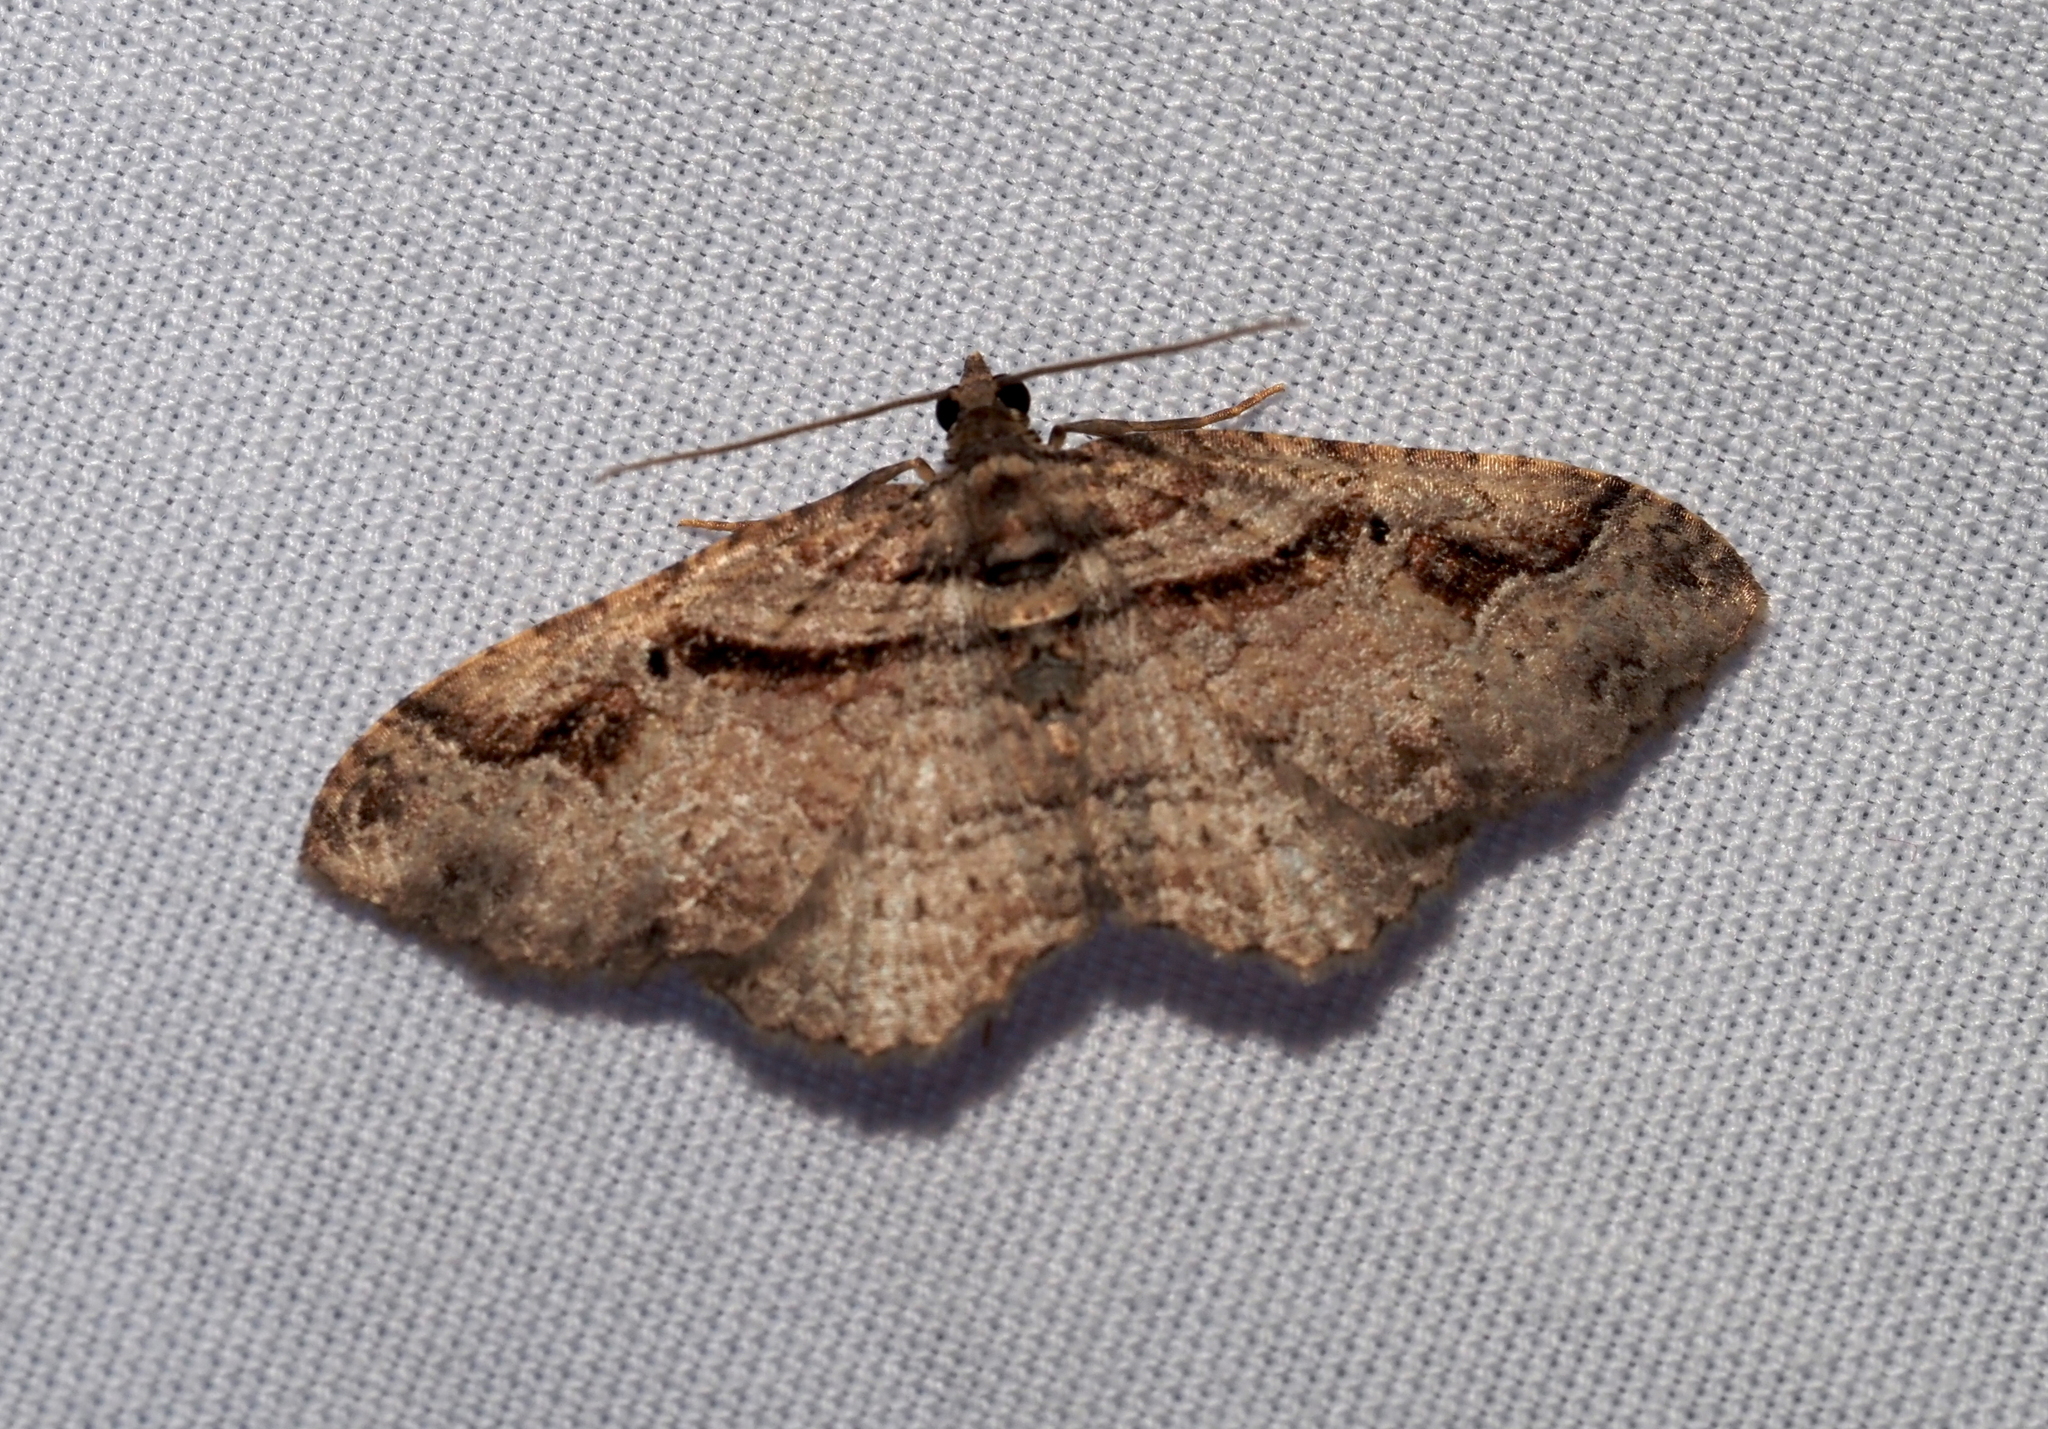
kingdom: Animalia
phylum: Arthropoda
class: Insecta
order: Lepidoptera
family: Geometridae
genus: Costaconvexa
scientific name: Costaconvexa centrostrigaria
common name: Bent-line carpet
